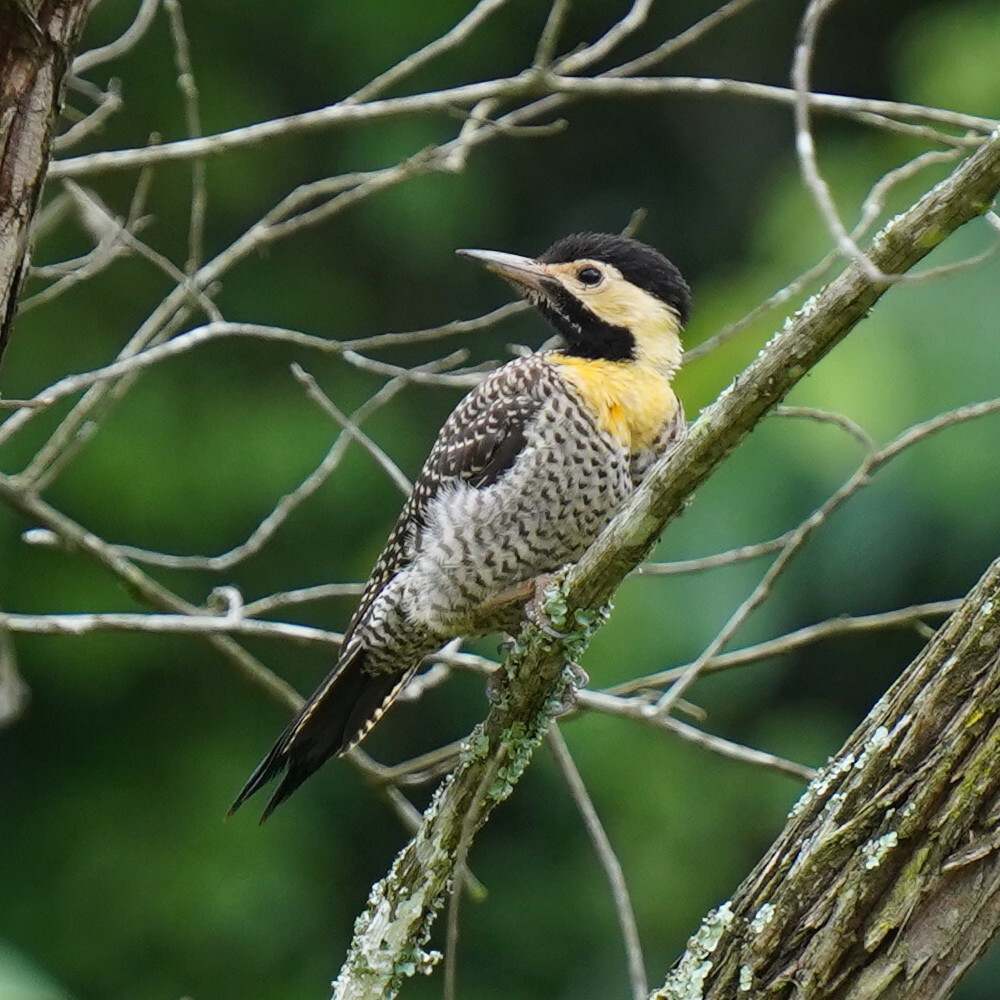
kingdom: Animalia
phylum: Chordata
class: Aves
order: Piciformes
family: Picidae
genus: Colaptes
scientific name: Colaptes campestris
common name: Campo flicker
